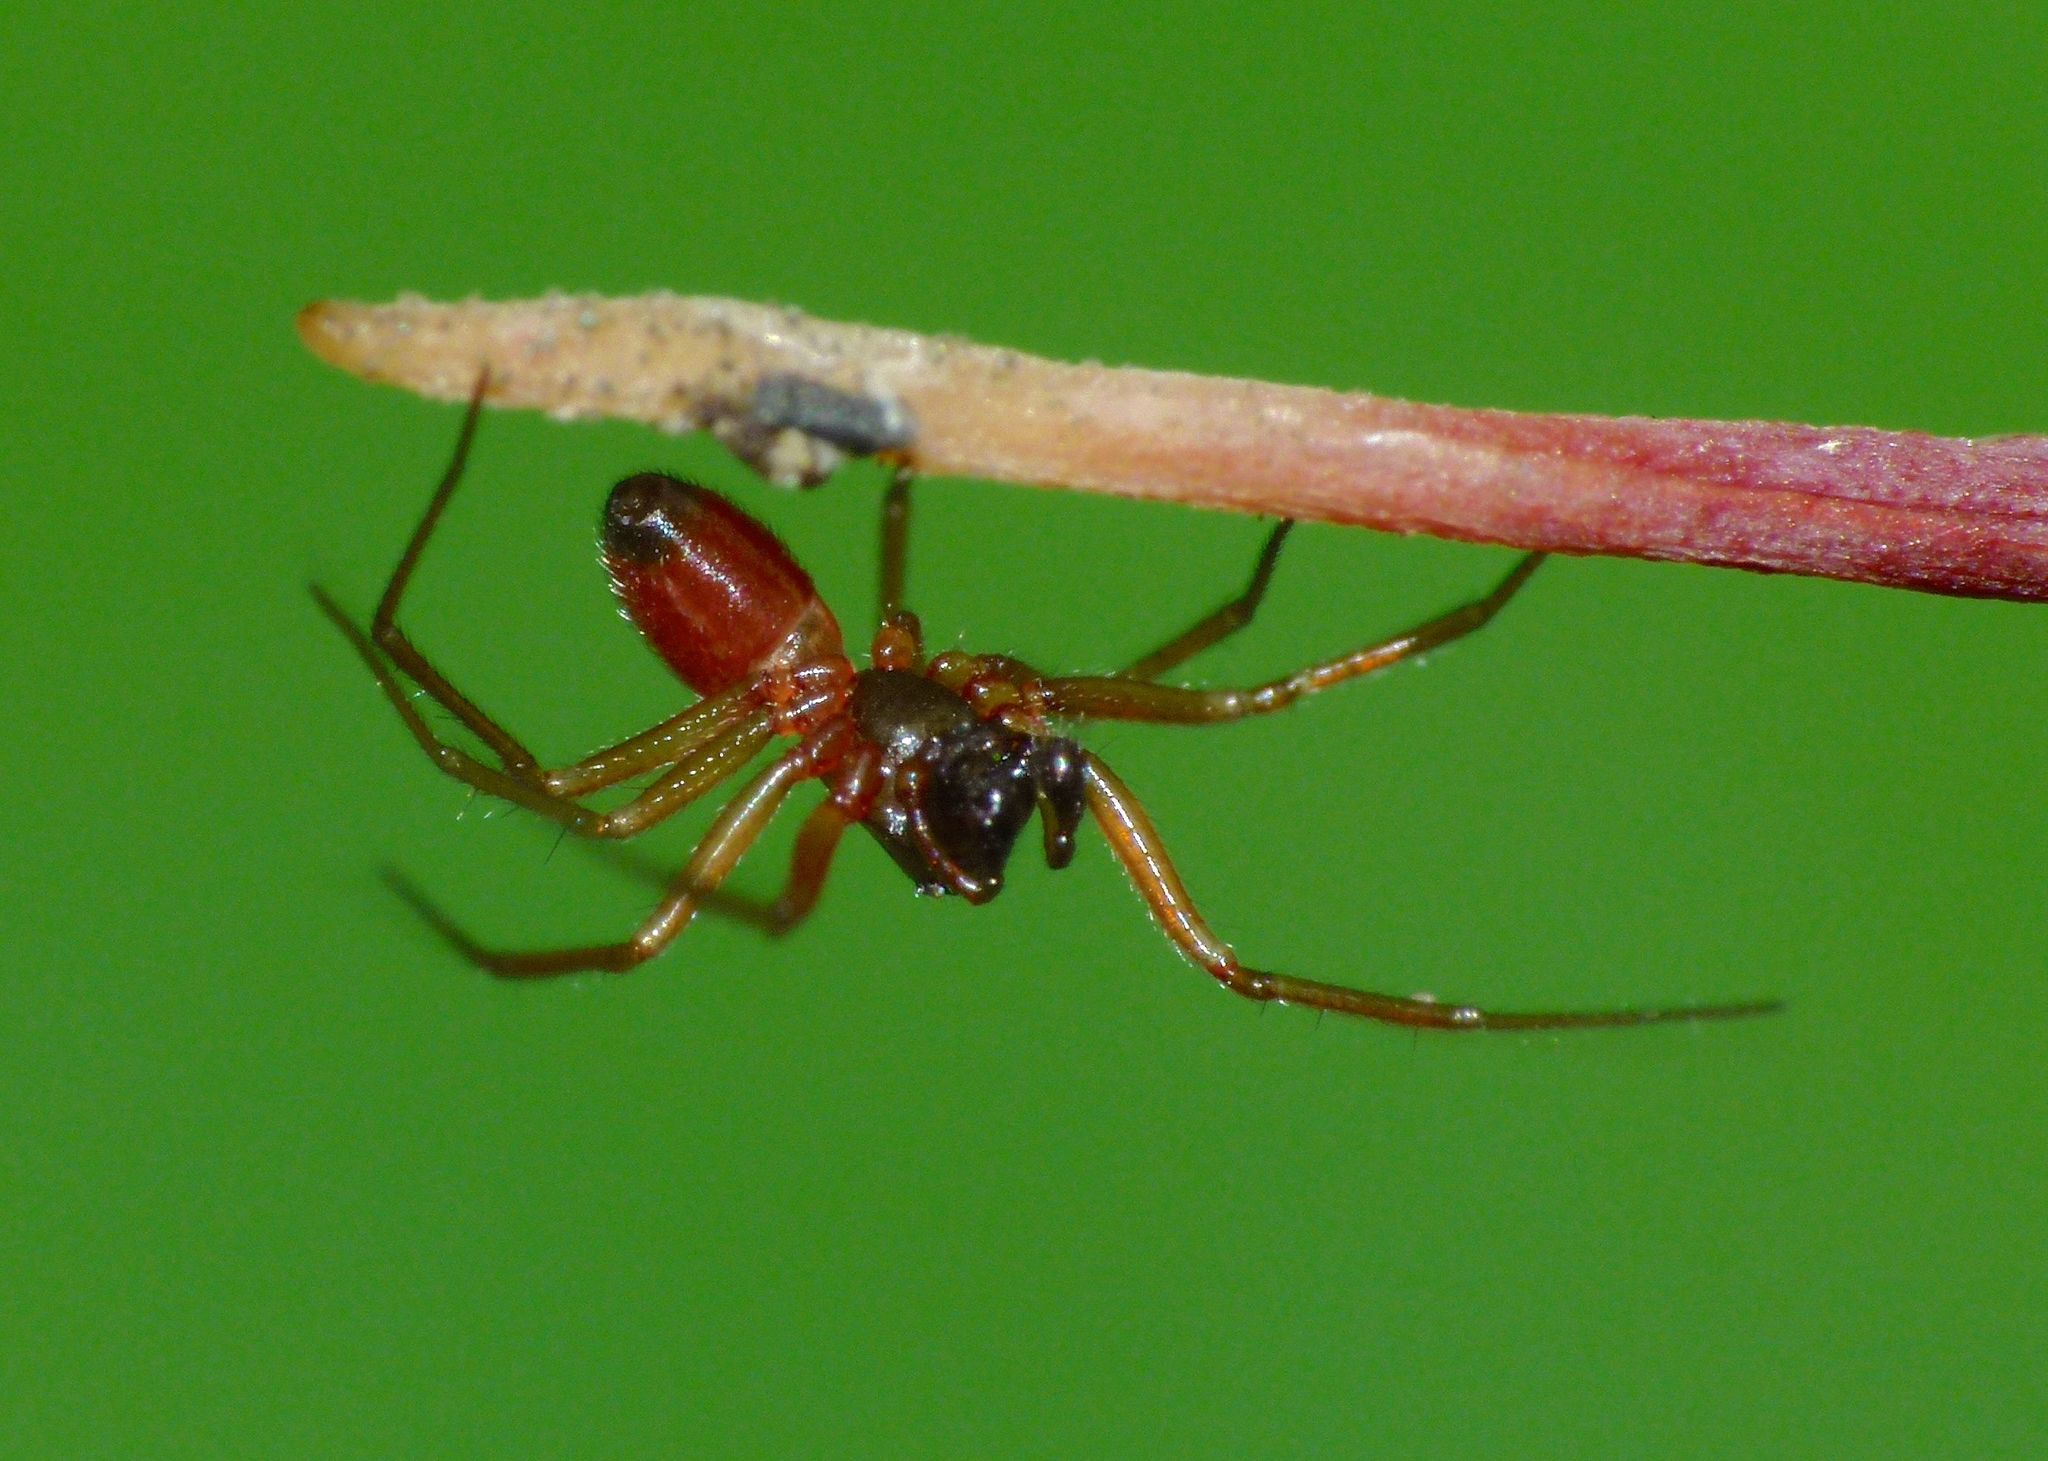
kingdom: Animalia
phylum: Arthropoda
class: Arachnida
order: Araneae
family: Linyphiidae
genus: Ostearius
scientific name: Ostearius melanopygius
